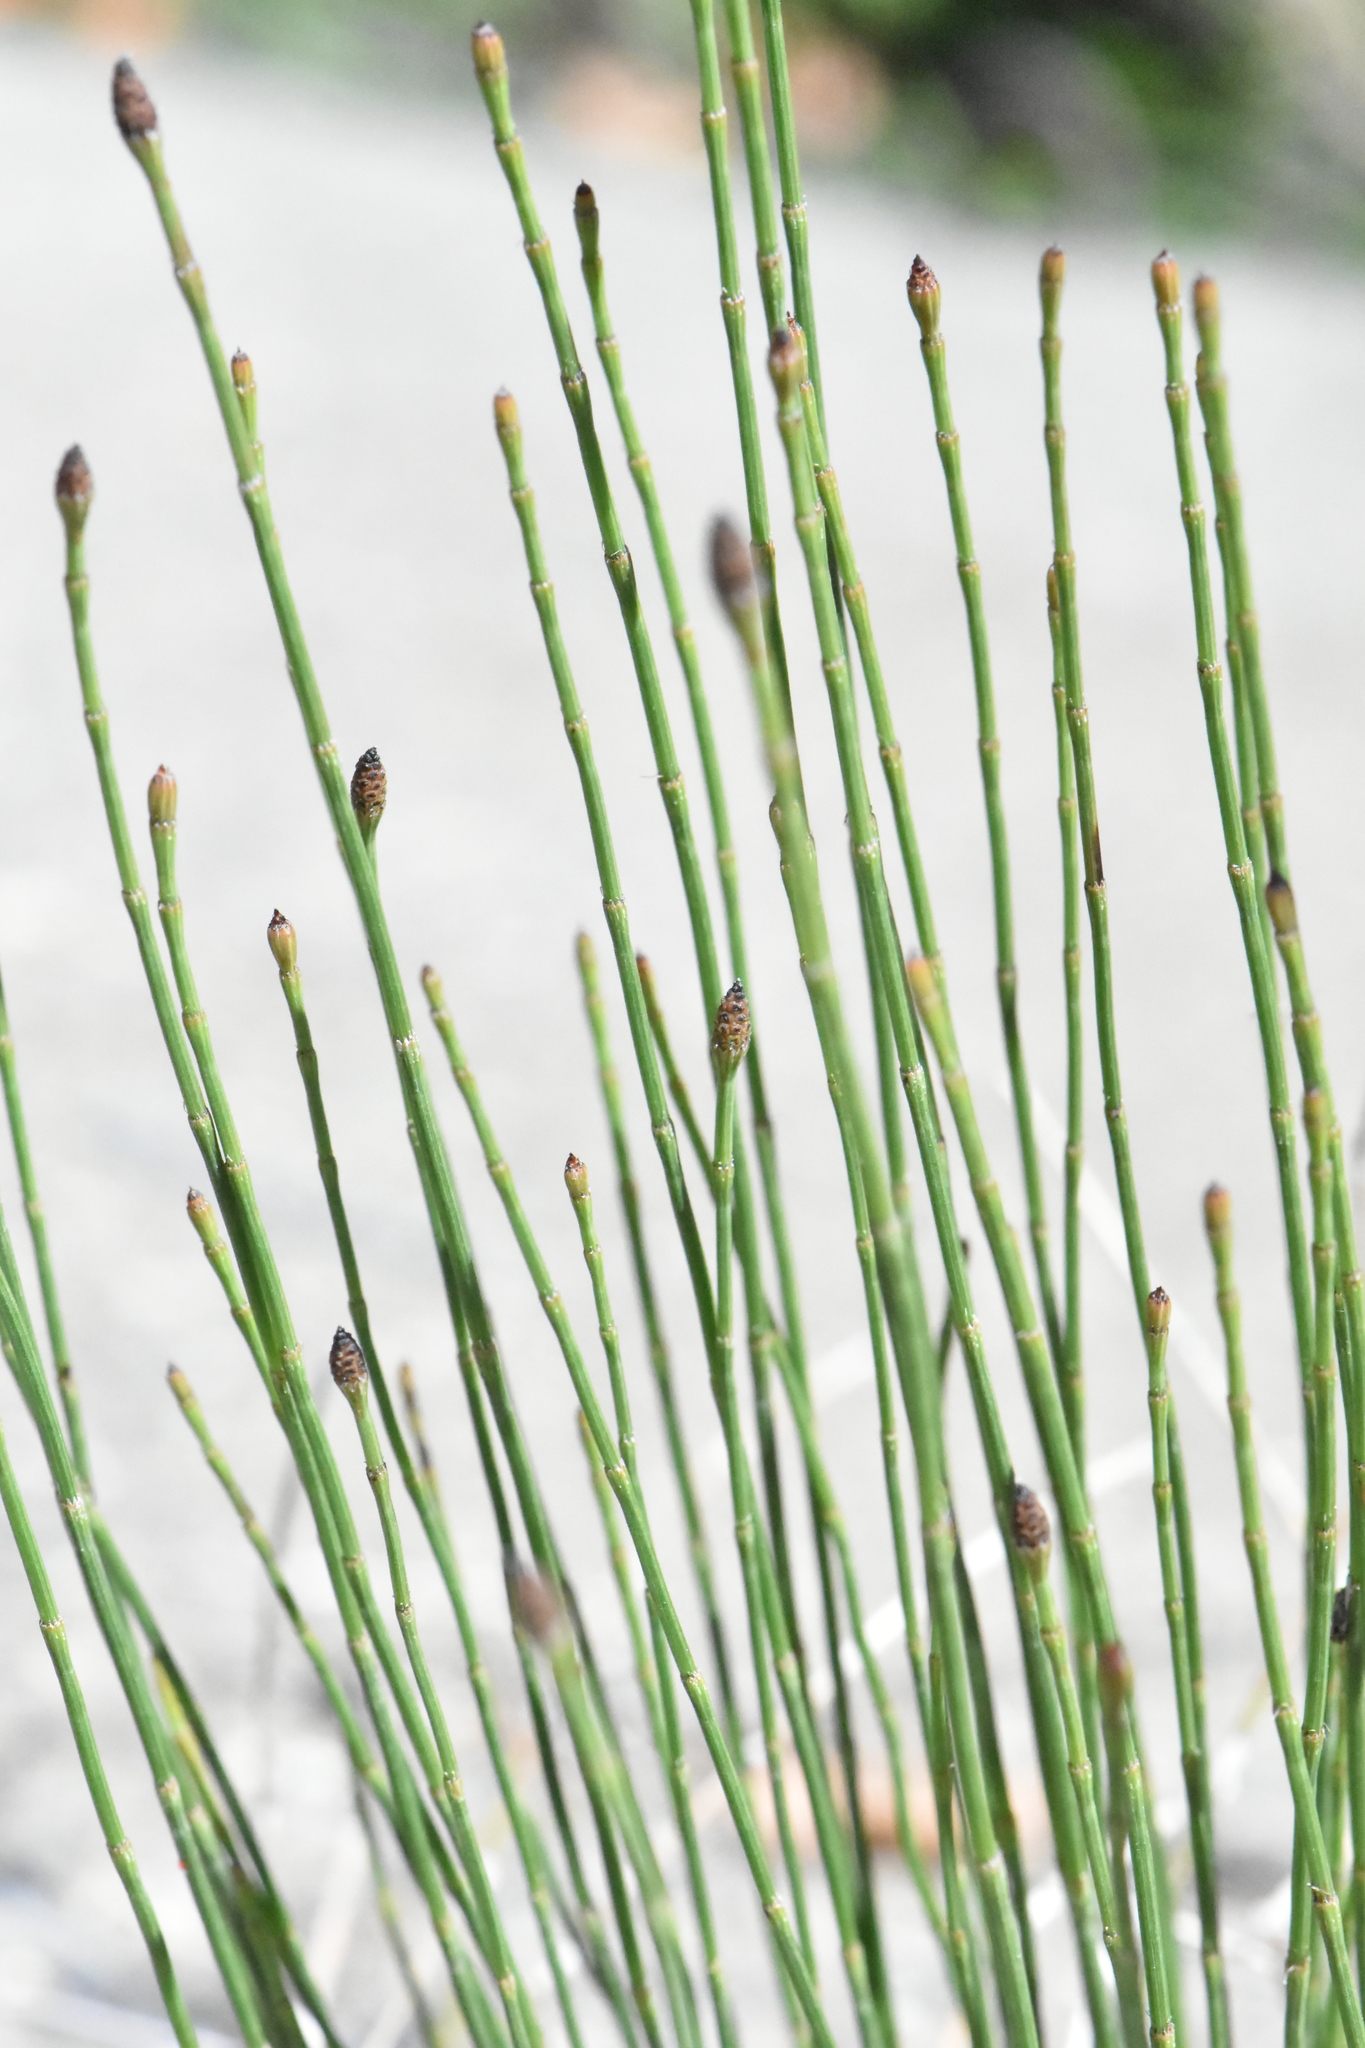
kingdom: Plantae
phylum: Tracheophyta
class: Polypodiopsida
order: Equisetales
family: Equisetaceae
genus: Equisetum
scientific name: Equisetum ramosissimum
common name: Branched horsetail
